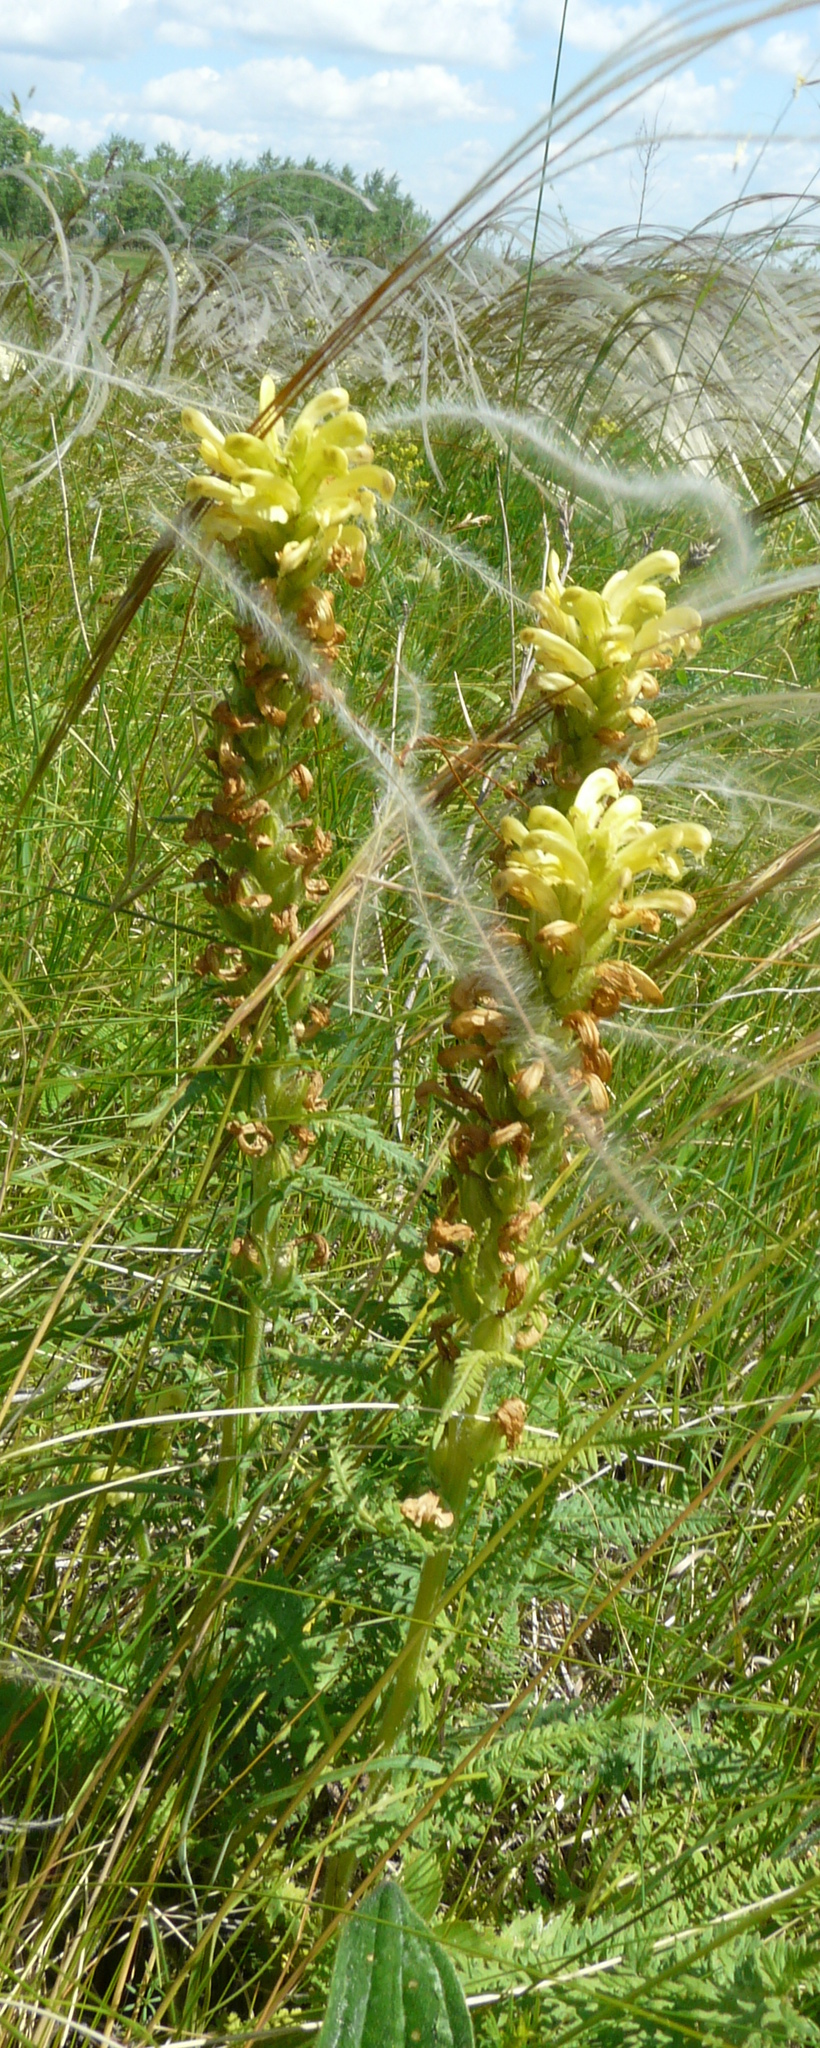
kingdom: Plantae
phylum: Tracheophyta
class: Magnoliopsida
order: Lamiales
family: Orobanchaceae
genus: Pedicularis
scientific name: Pedicularis kaufmannii
